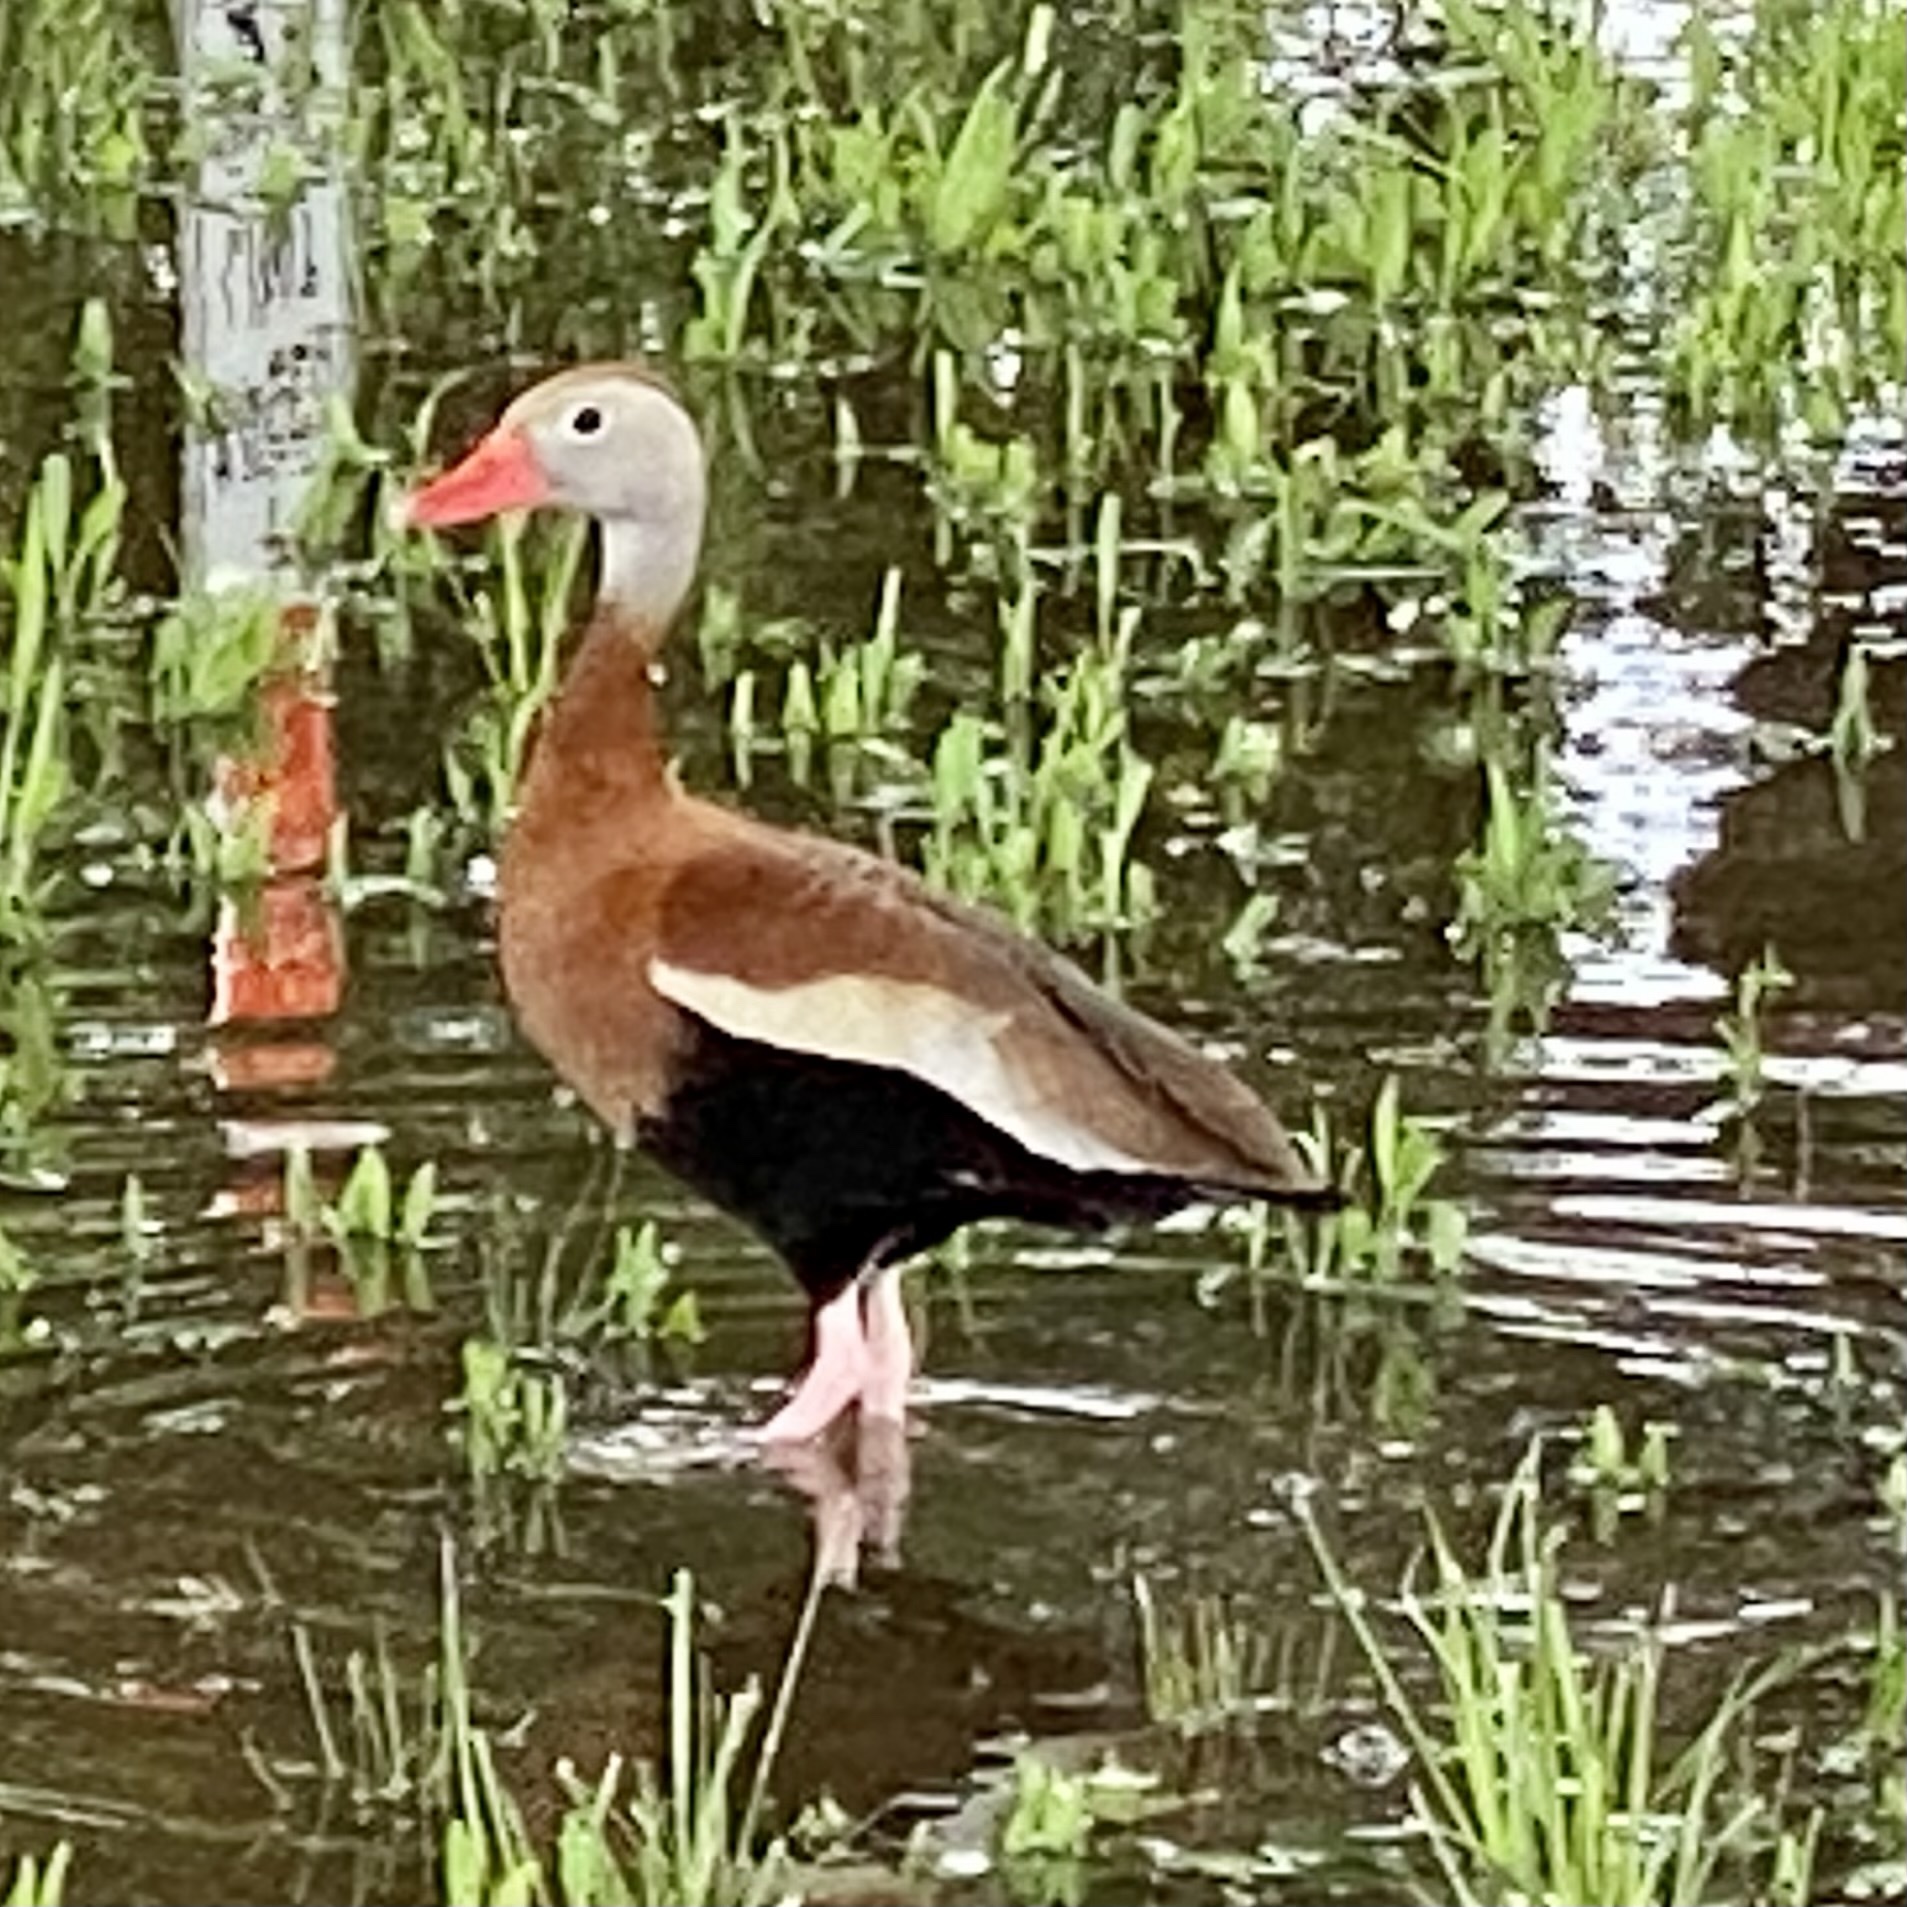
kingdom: Animalia
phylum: Chordata
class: Aves
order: Anseriformes
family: Anatidae
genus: Dendrocygna
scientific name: Dendrocygna autumnalis
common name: Black-bellied whistling duck
